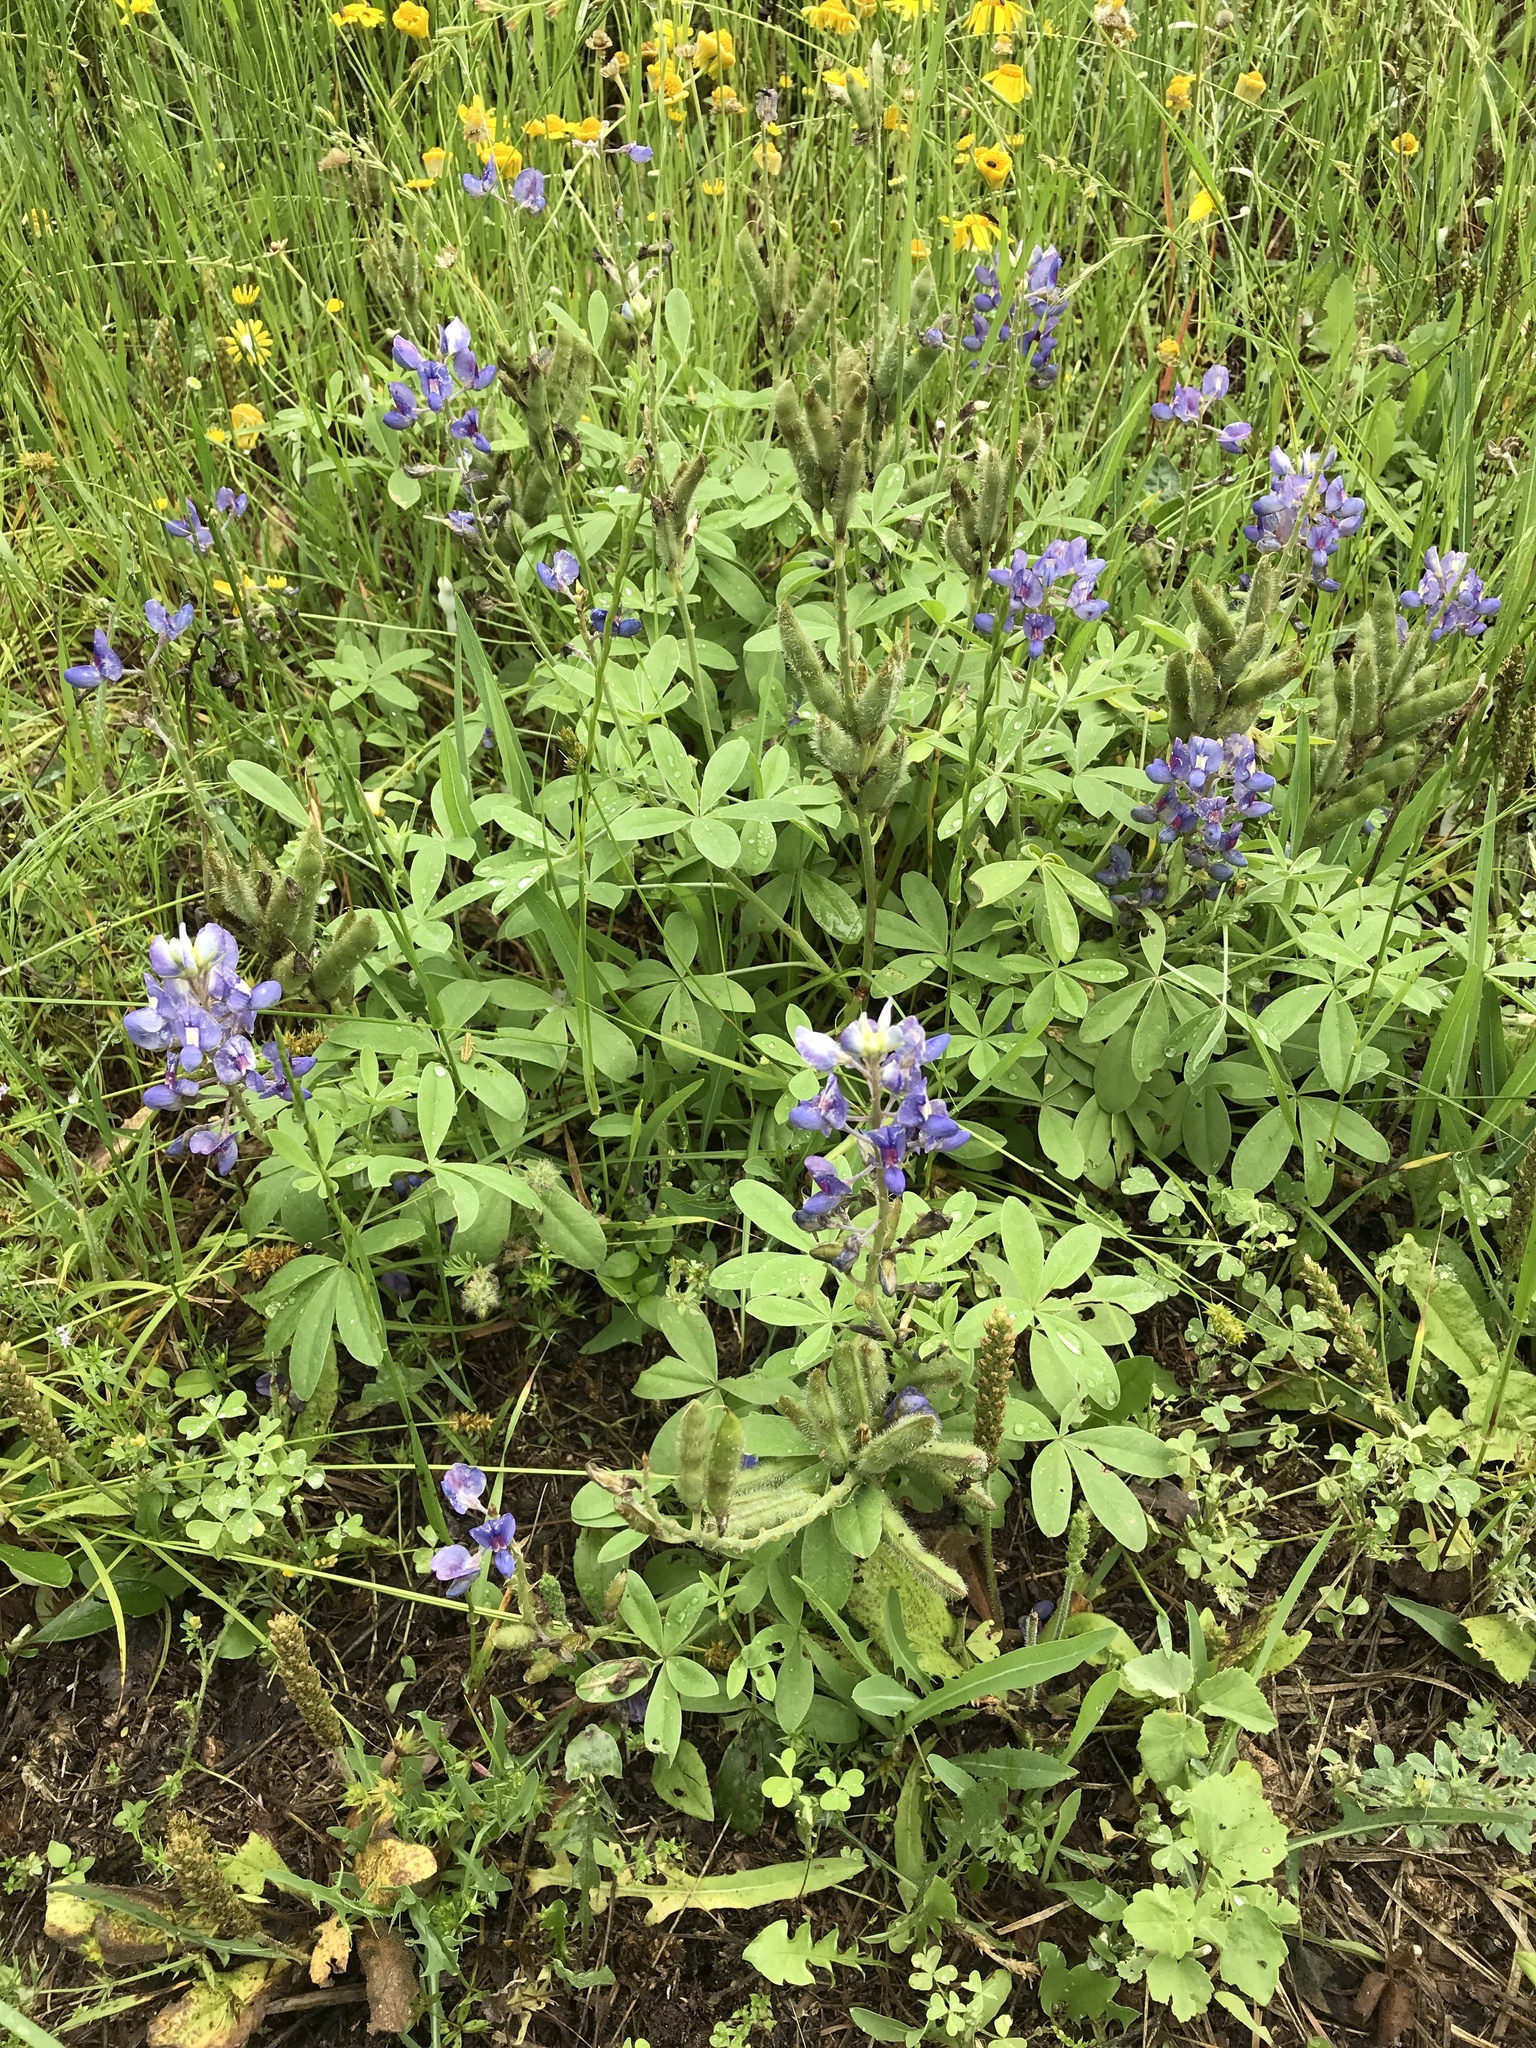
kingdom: Plantae
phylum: Tracheophyta
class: Magnoliopsida
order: Fabales
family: Fabaceae
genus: Lupinus
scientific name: Lupinus texensis
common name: Texas bluebonnet
